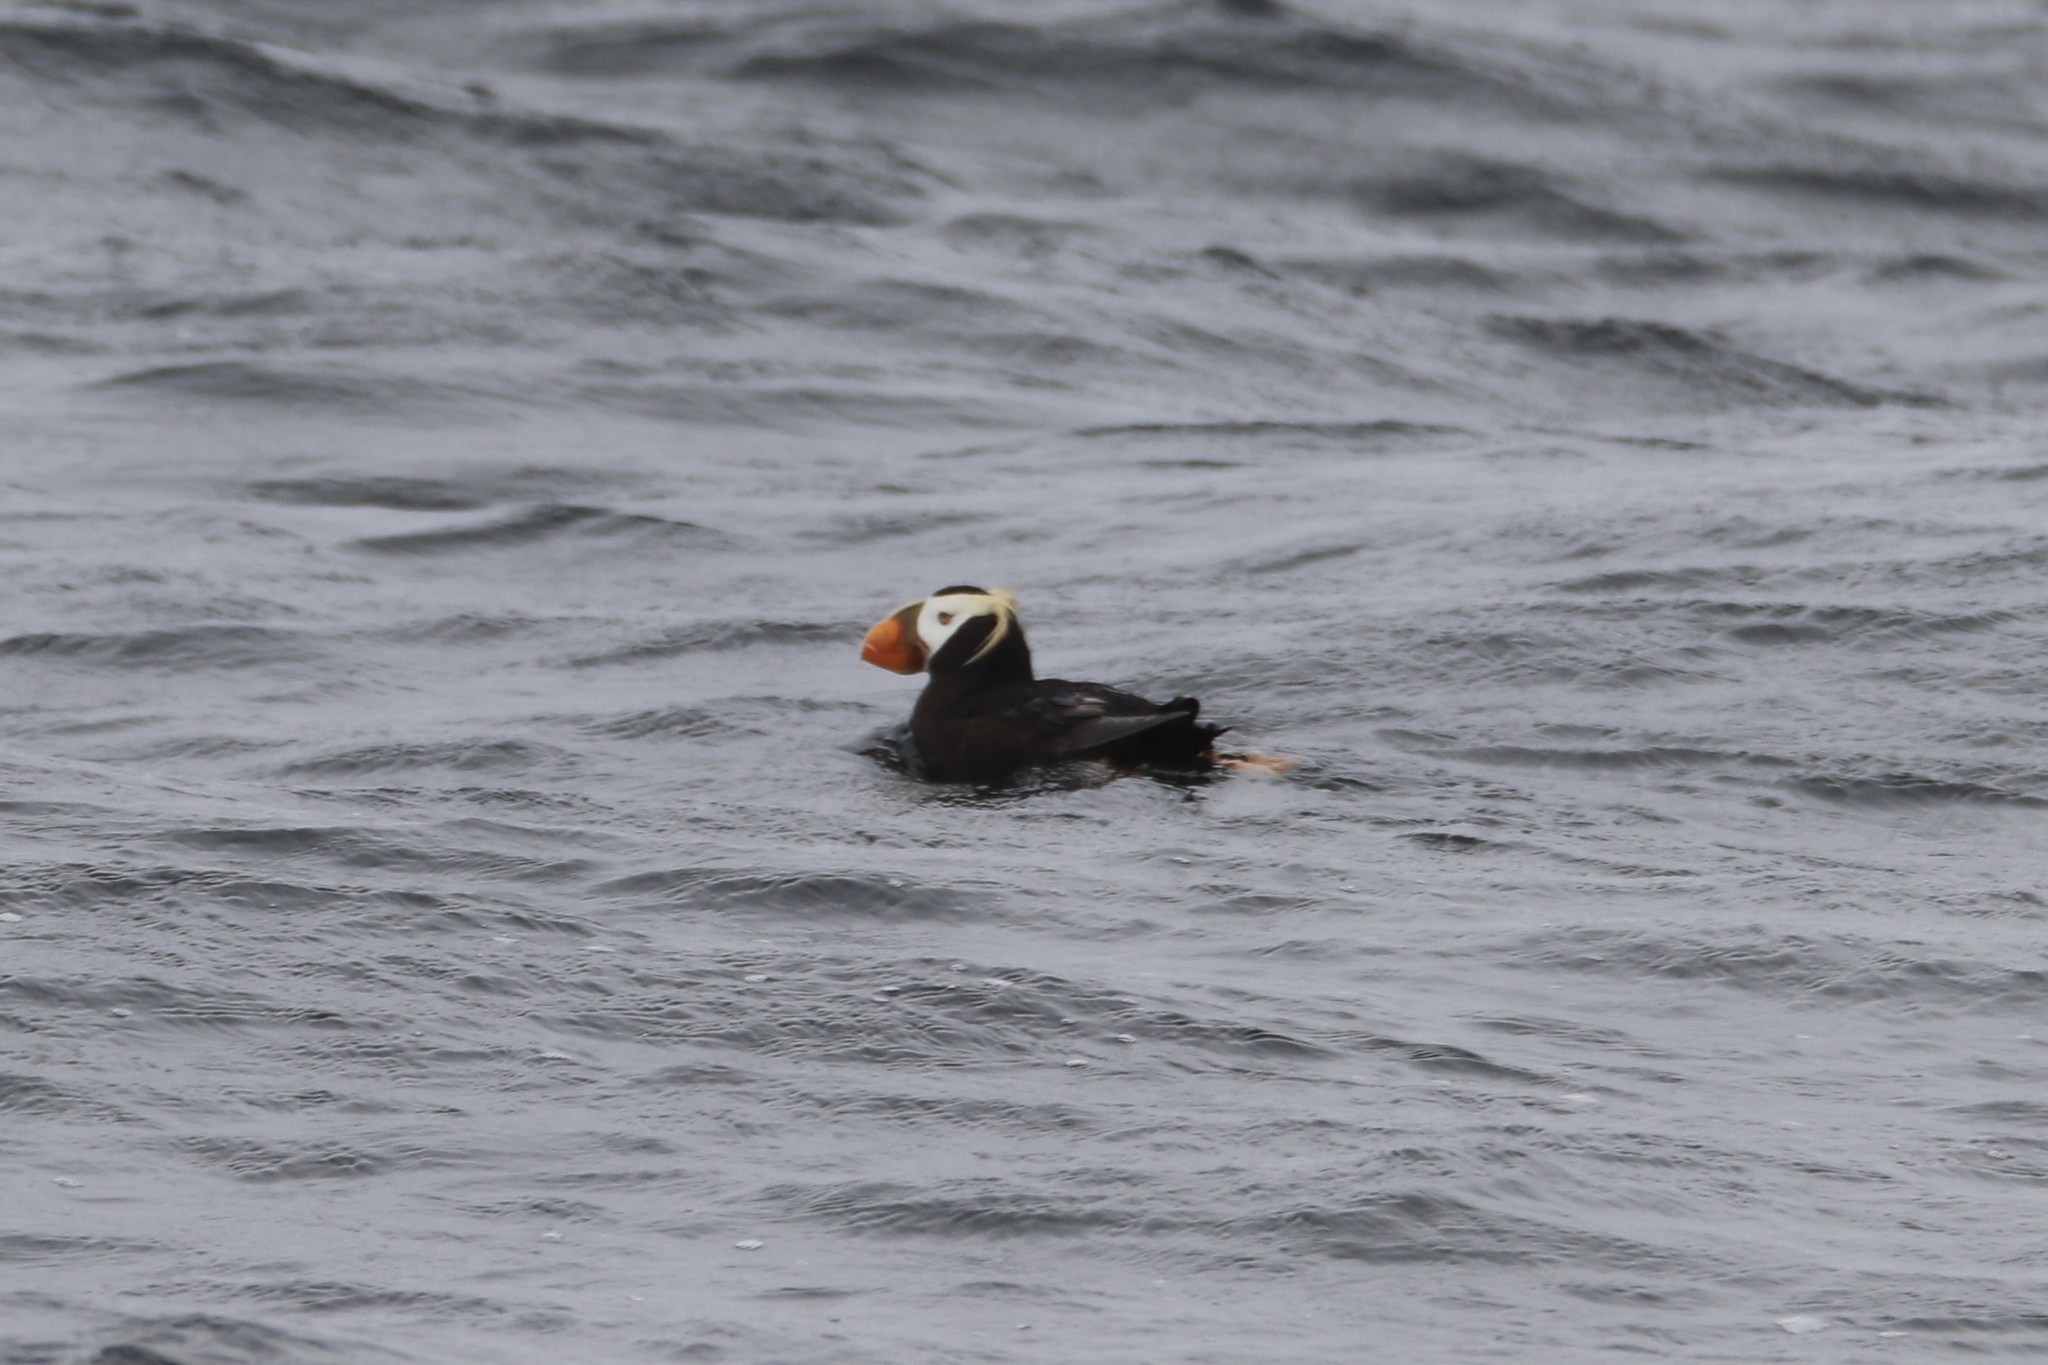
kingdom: Animalia
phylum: Chordata
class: Aves
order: Charadriiformes
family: Alcidae
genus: Fratercula
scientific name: Fratercula cirrhata
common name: Tufted puffin
